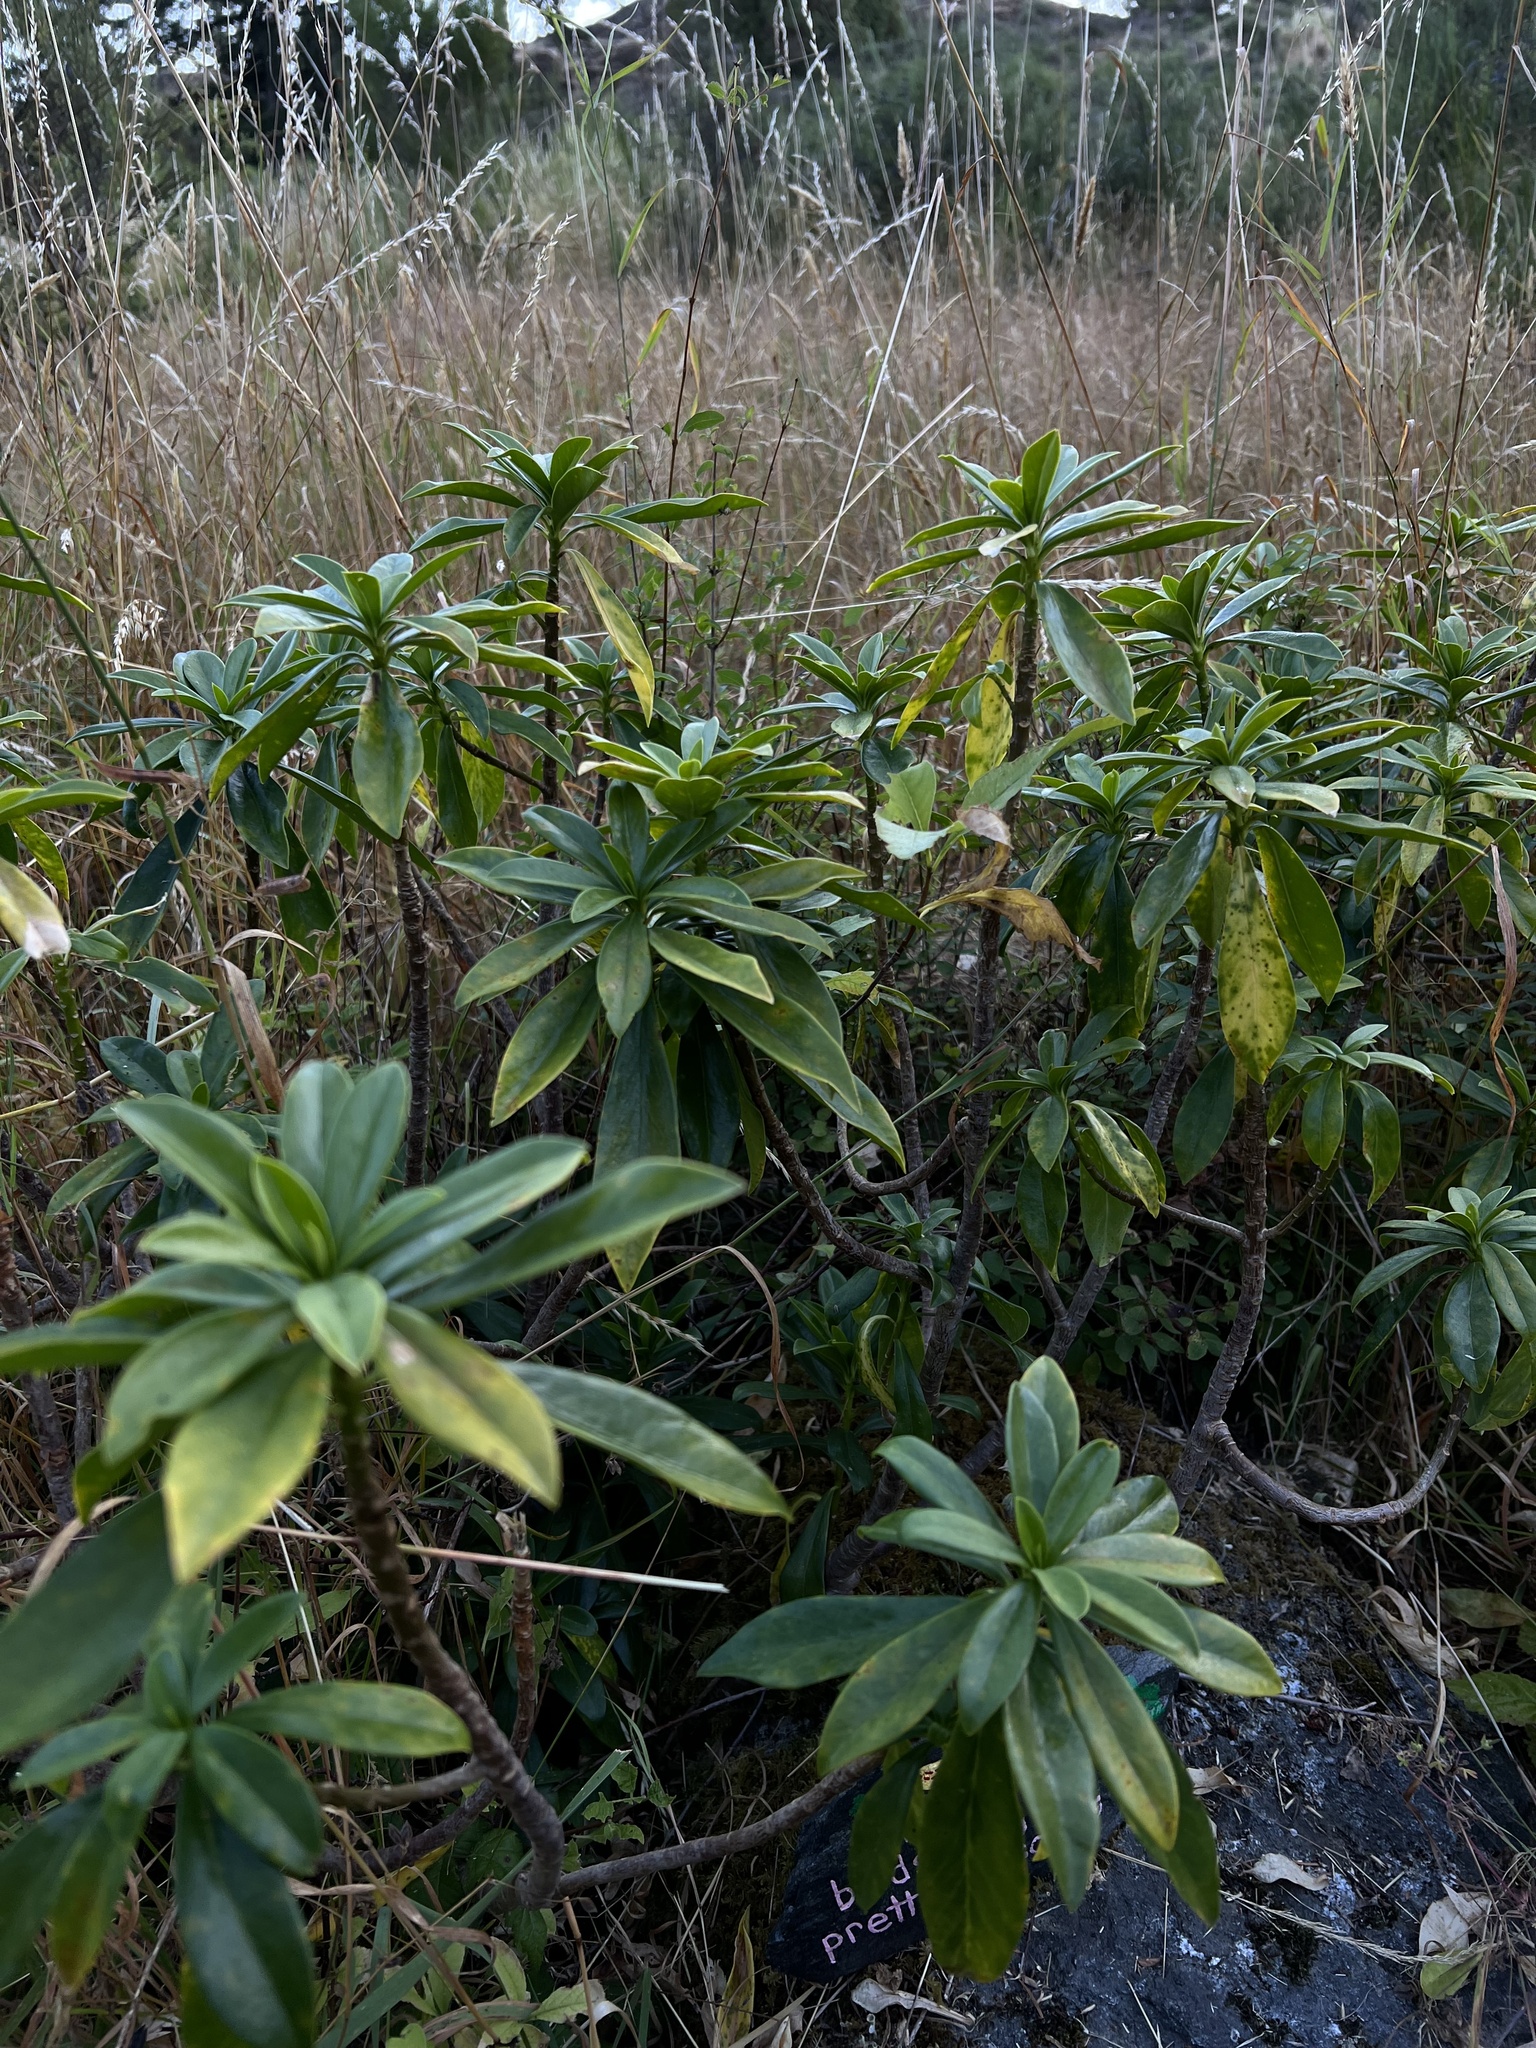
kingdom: Plantae
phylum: Tracheophyta
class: Magnoliopsida
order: Malvales
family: Thymelaeaceae
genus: Daphne
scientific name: Daphne laureola
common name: Spurge-laurel
